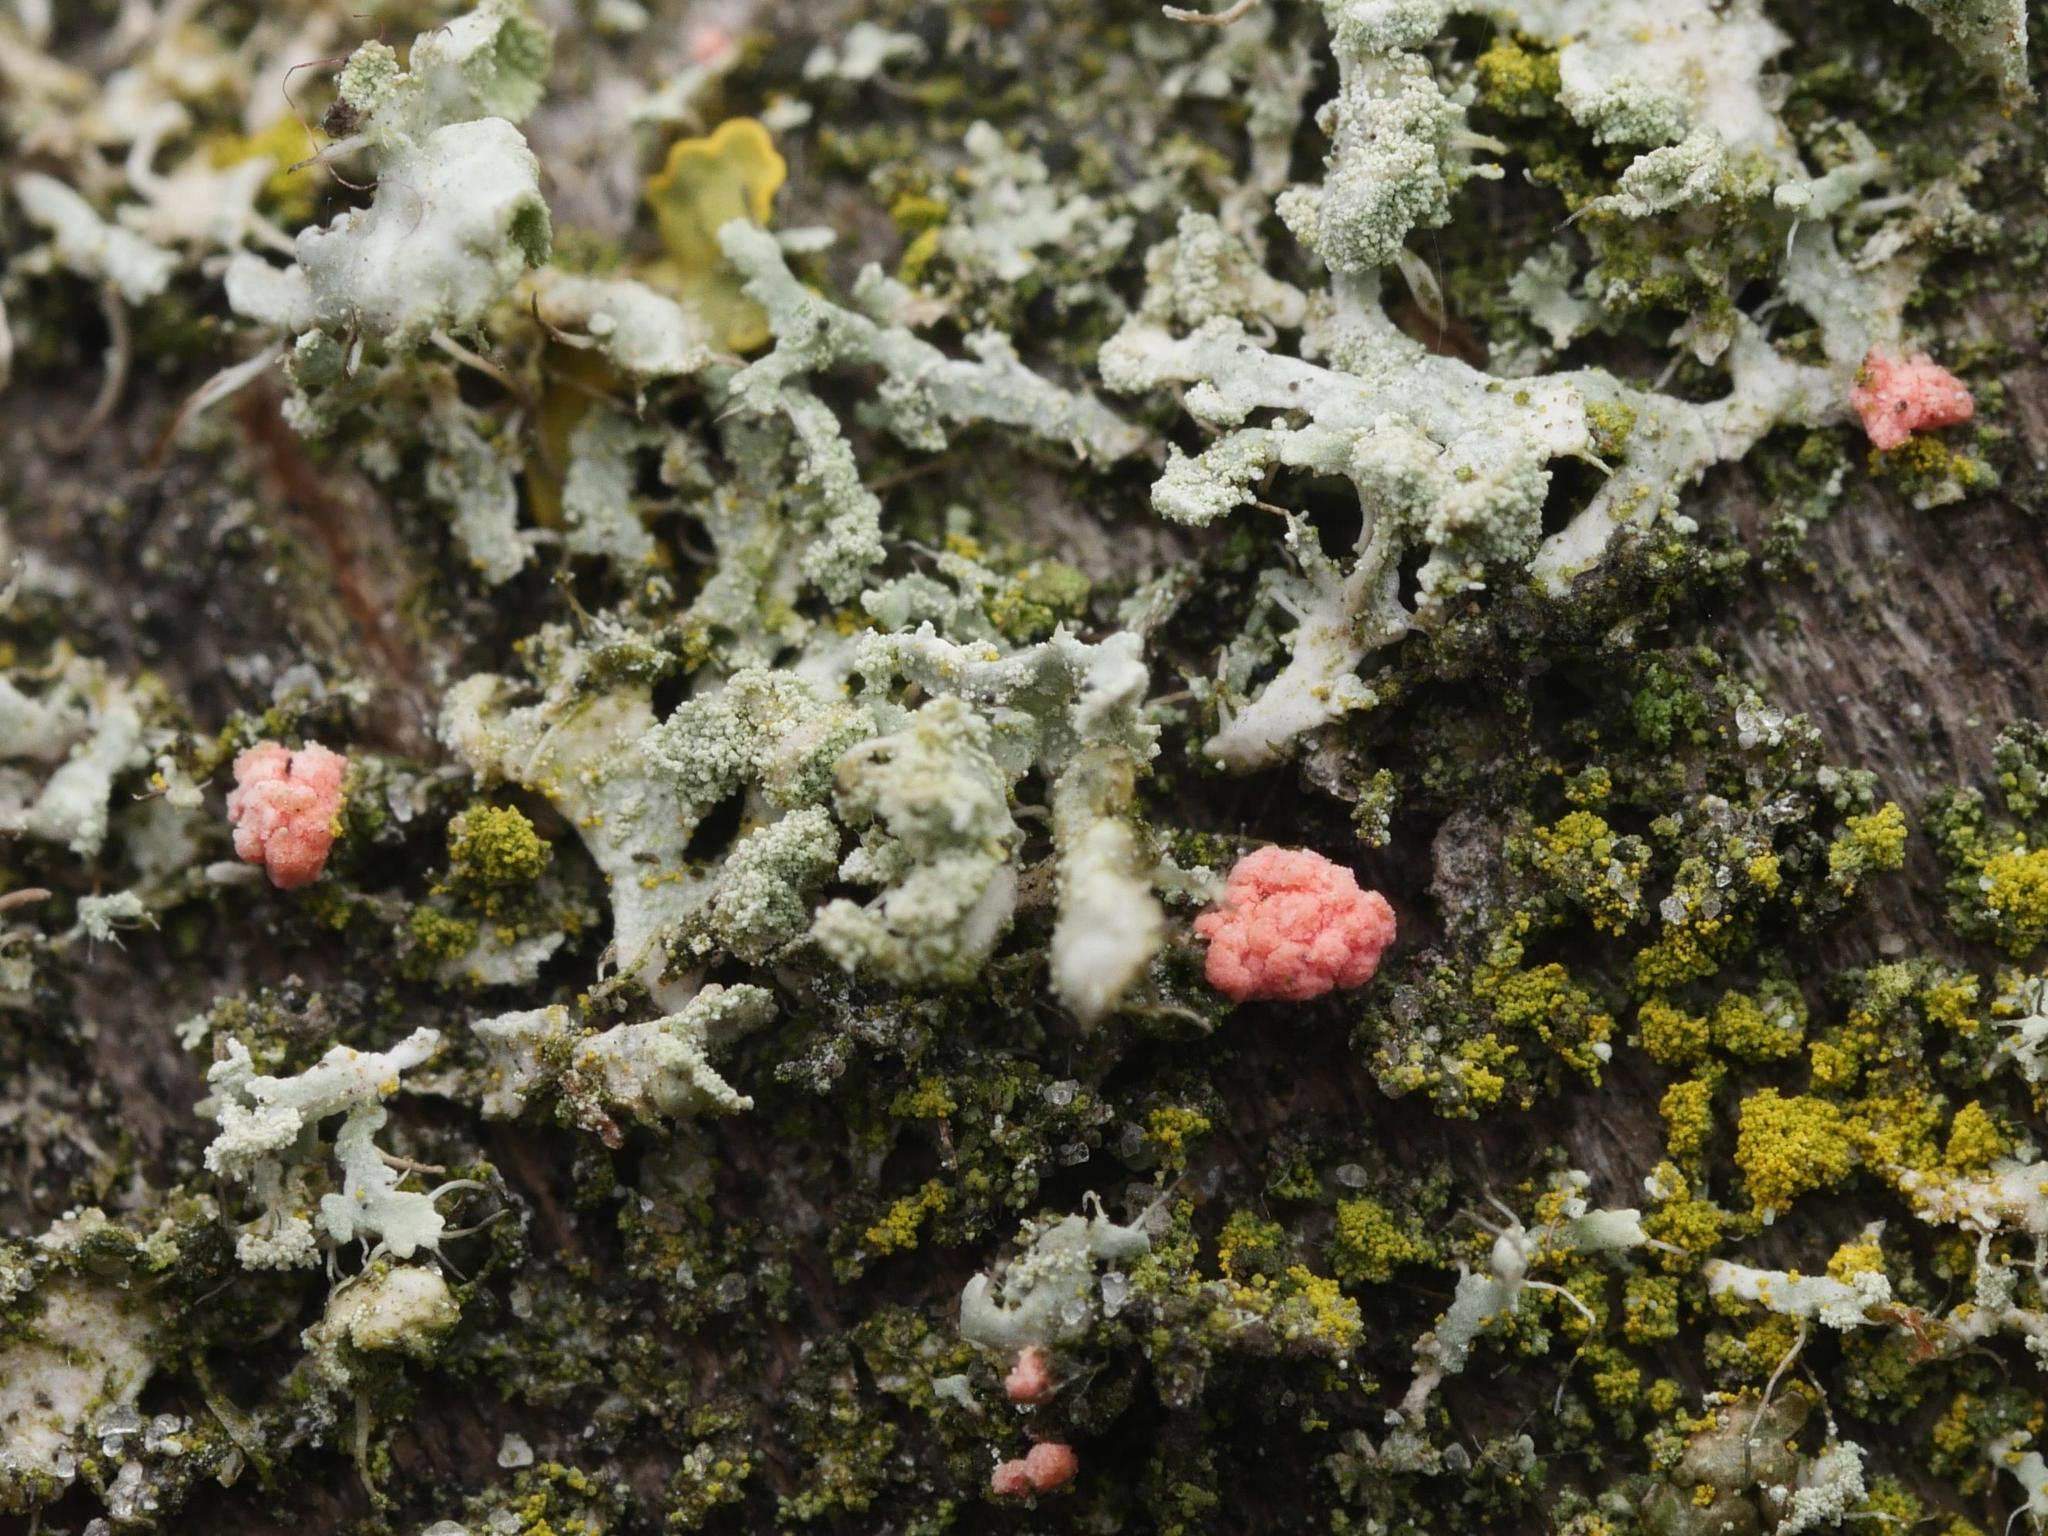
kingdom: Fungi
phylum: Ascomycota
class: Sordariomycetes
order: Hypocreales
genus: Illosporiopsis
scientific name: Illosporiopsis christiansenii
